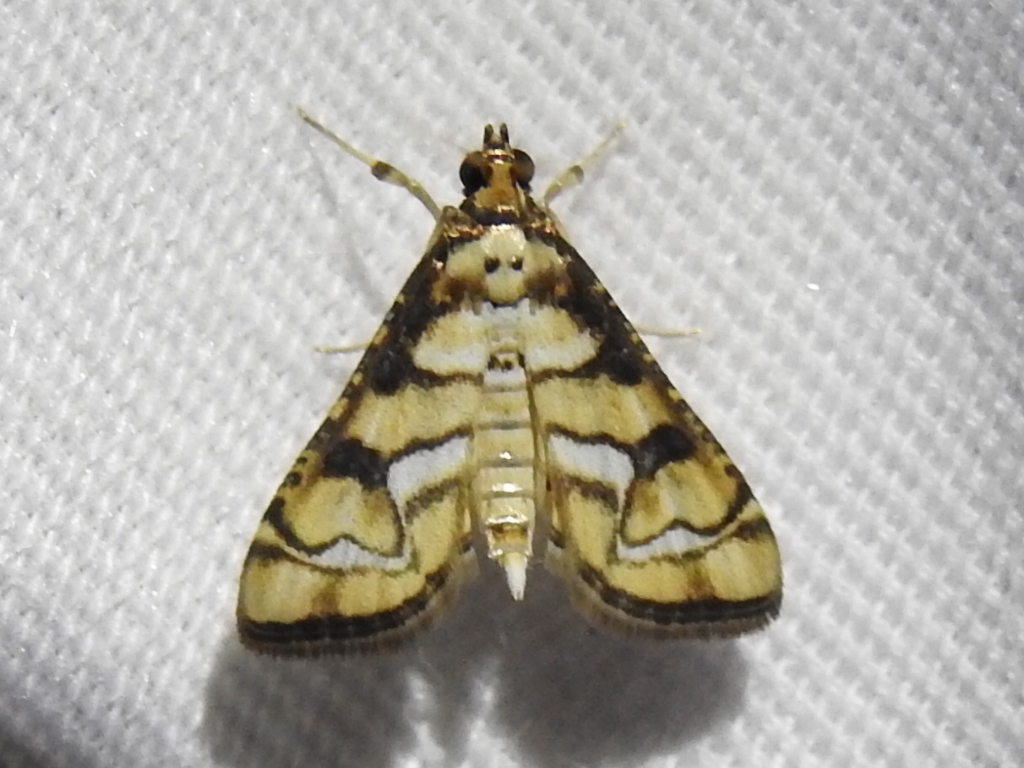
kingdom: Animalia
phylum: Arthropoda
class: Insecta
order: Lepidoptera
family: Crambidae
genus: Hileithia
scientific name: Hileithia magualis
